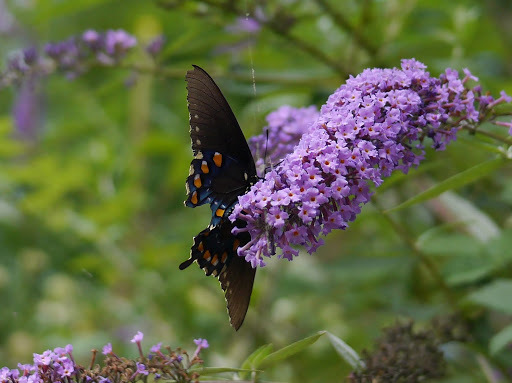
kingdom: Animalia
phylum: Arthropoda
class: Insecta
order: Lepidoptera
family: Papilionidae
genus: Battus
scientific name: Battus philenor
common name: Pipevine swallowtail
